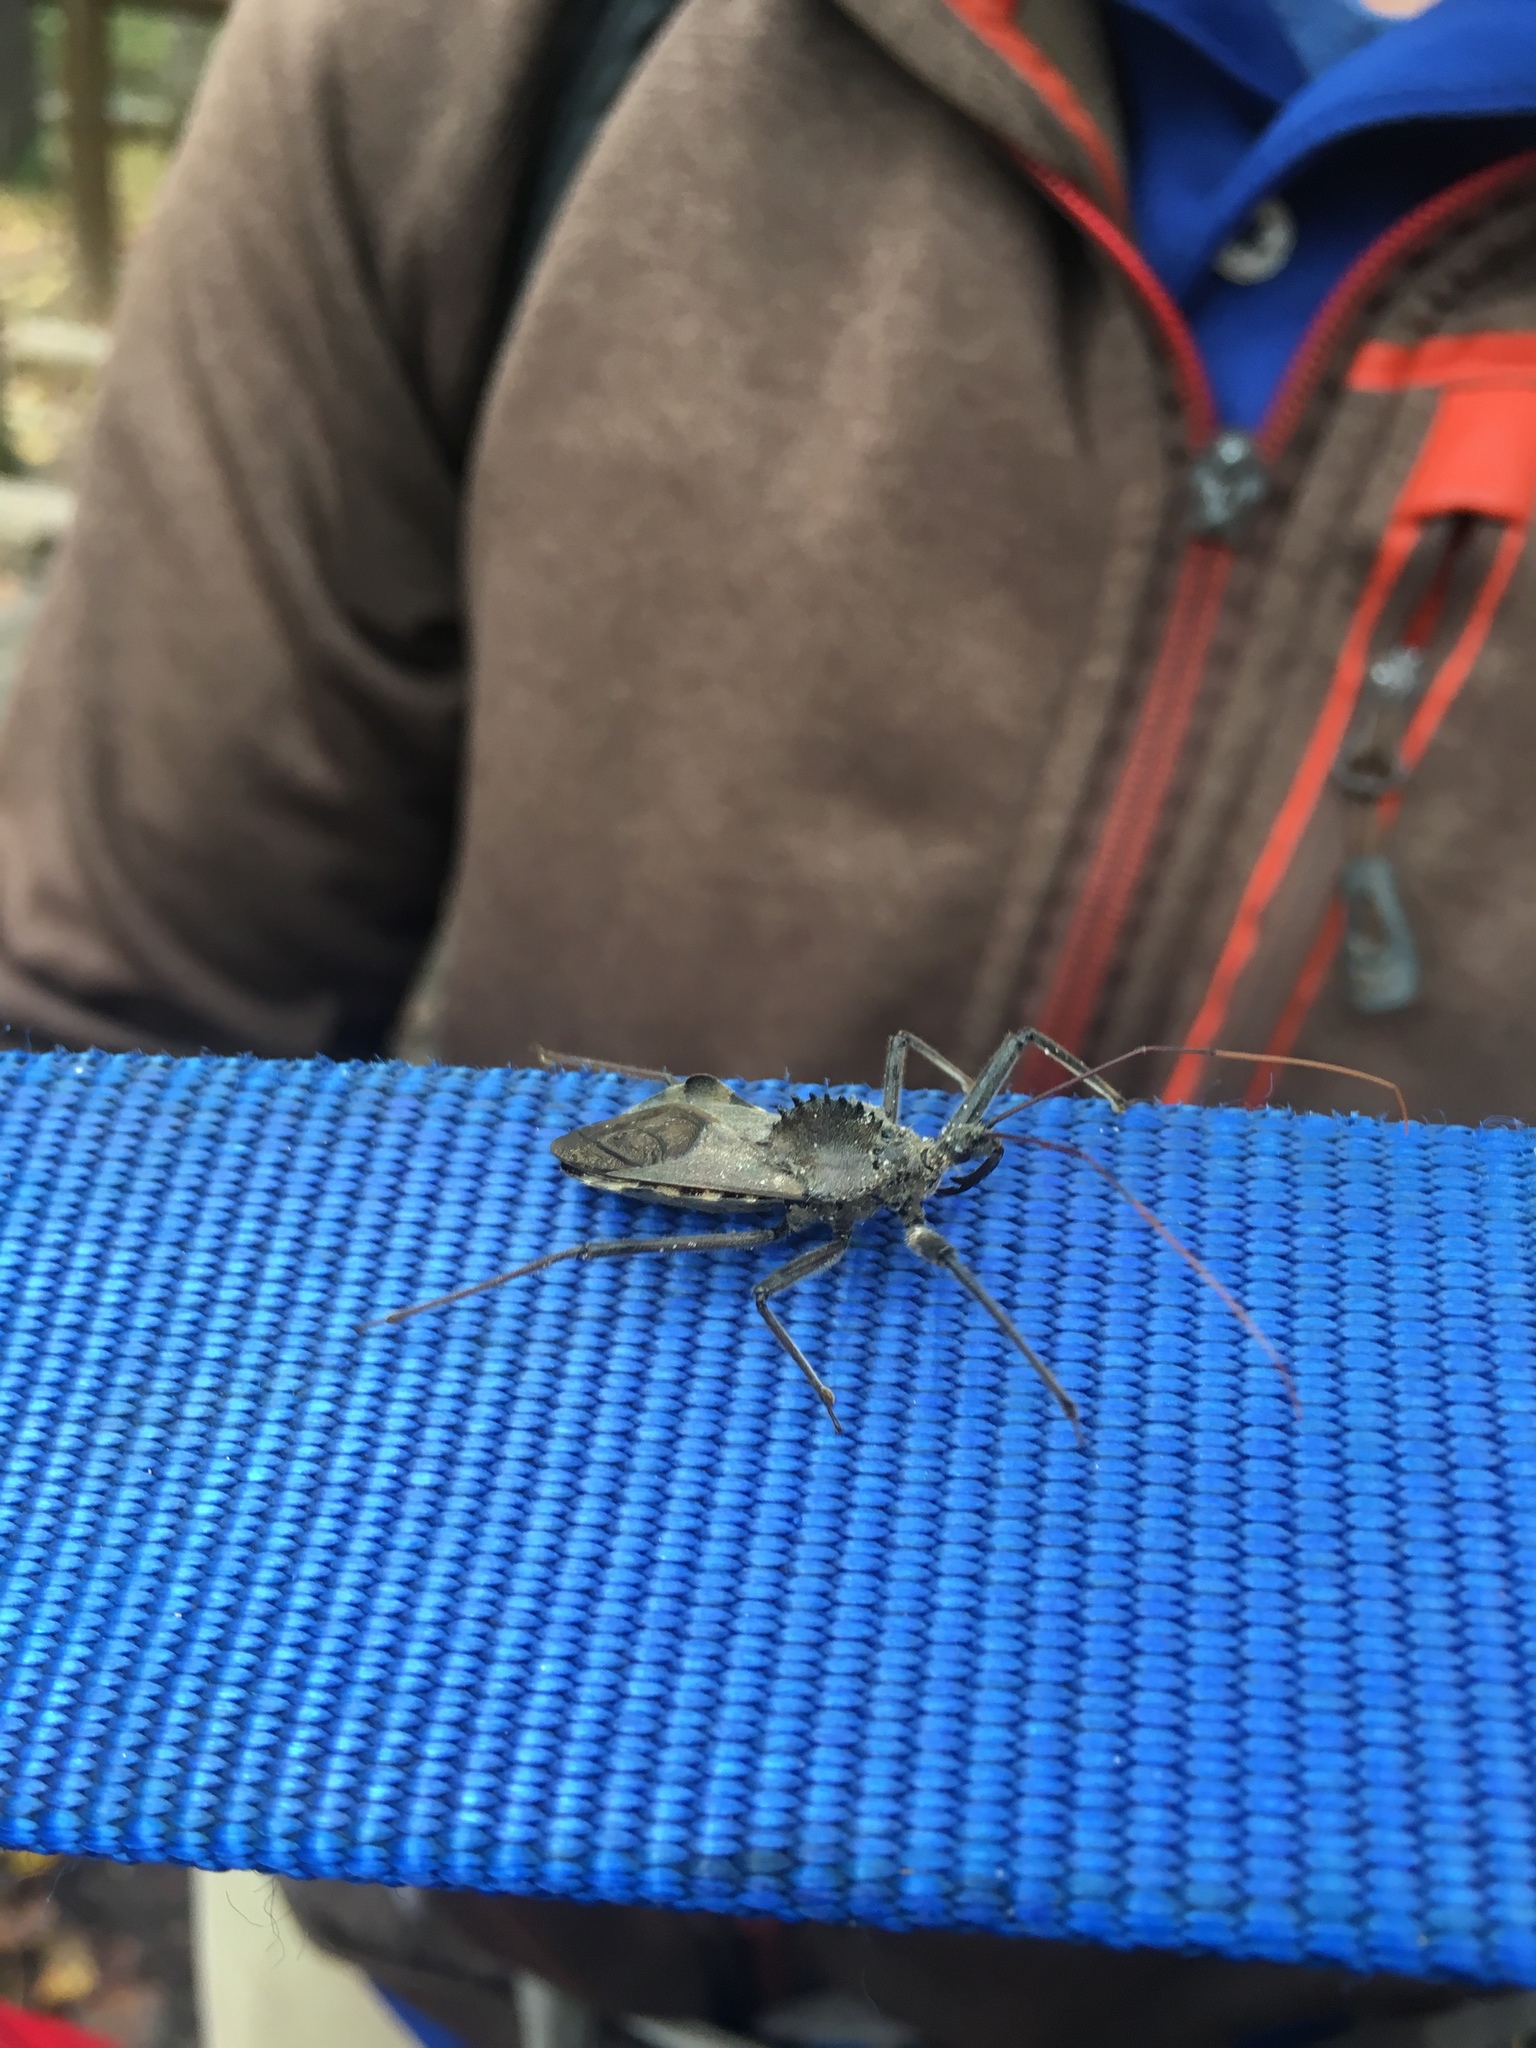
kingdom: Animalia
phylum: Arthropoda
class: Insecta
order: Hemiptera
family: Reduviidae
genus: Arilus
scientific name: Arilus cristatus
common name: North american wheel bug
